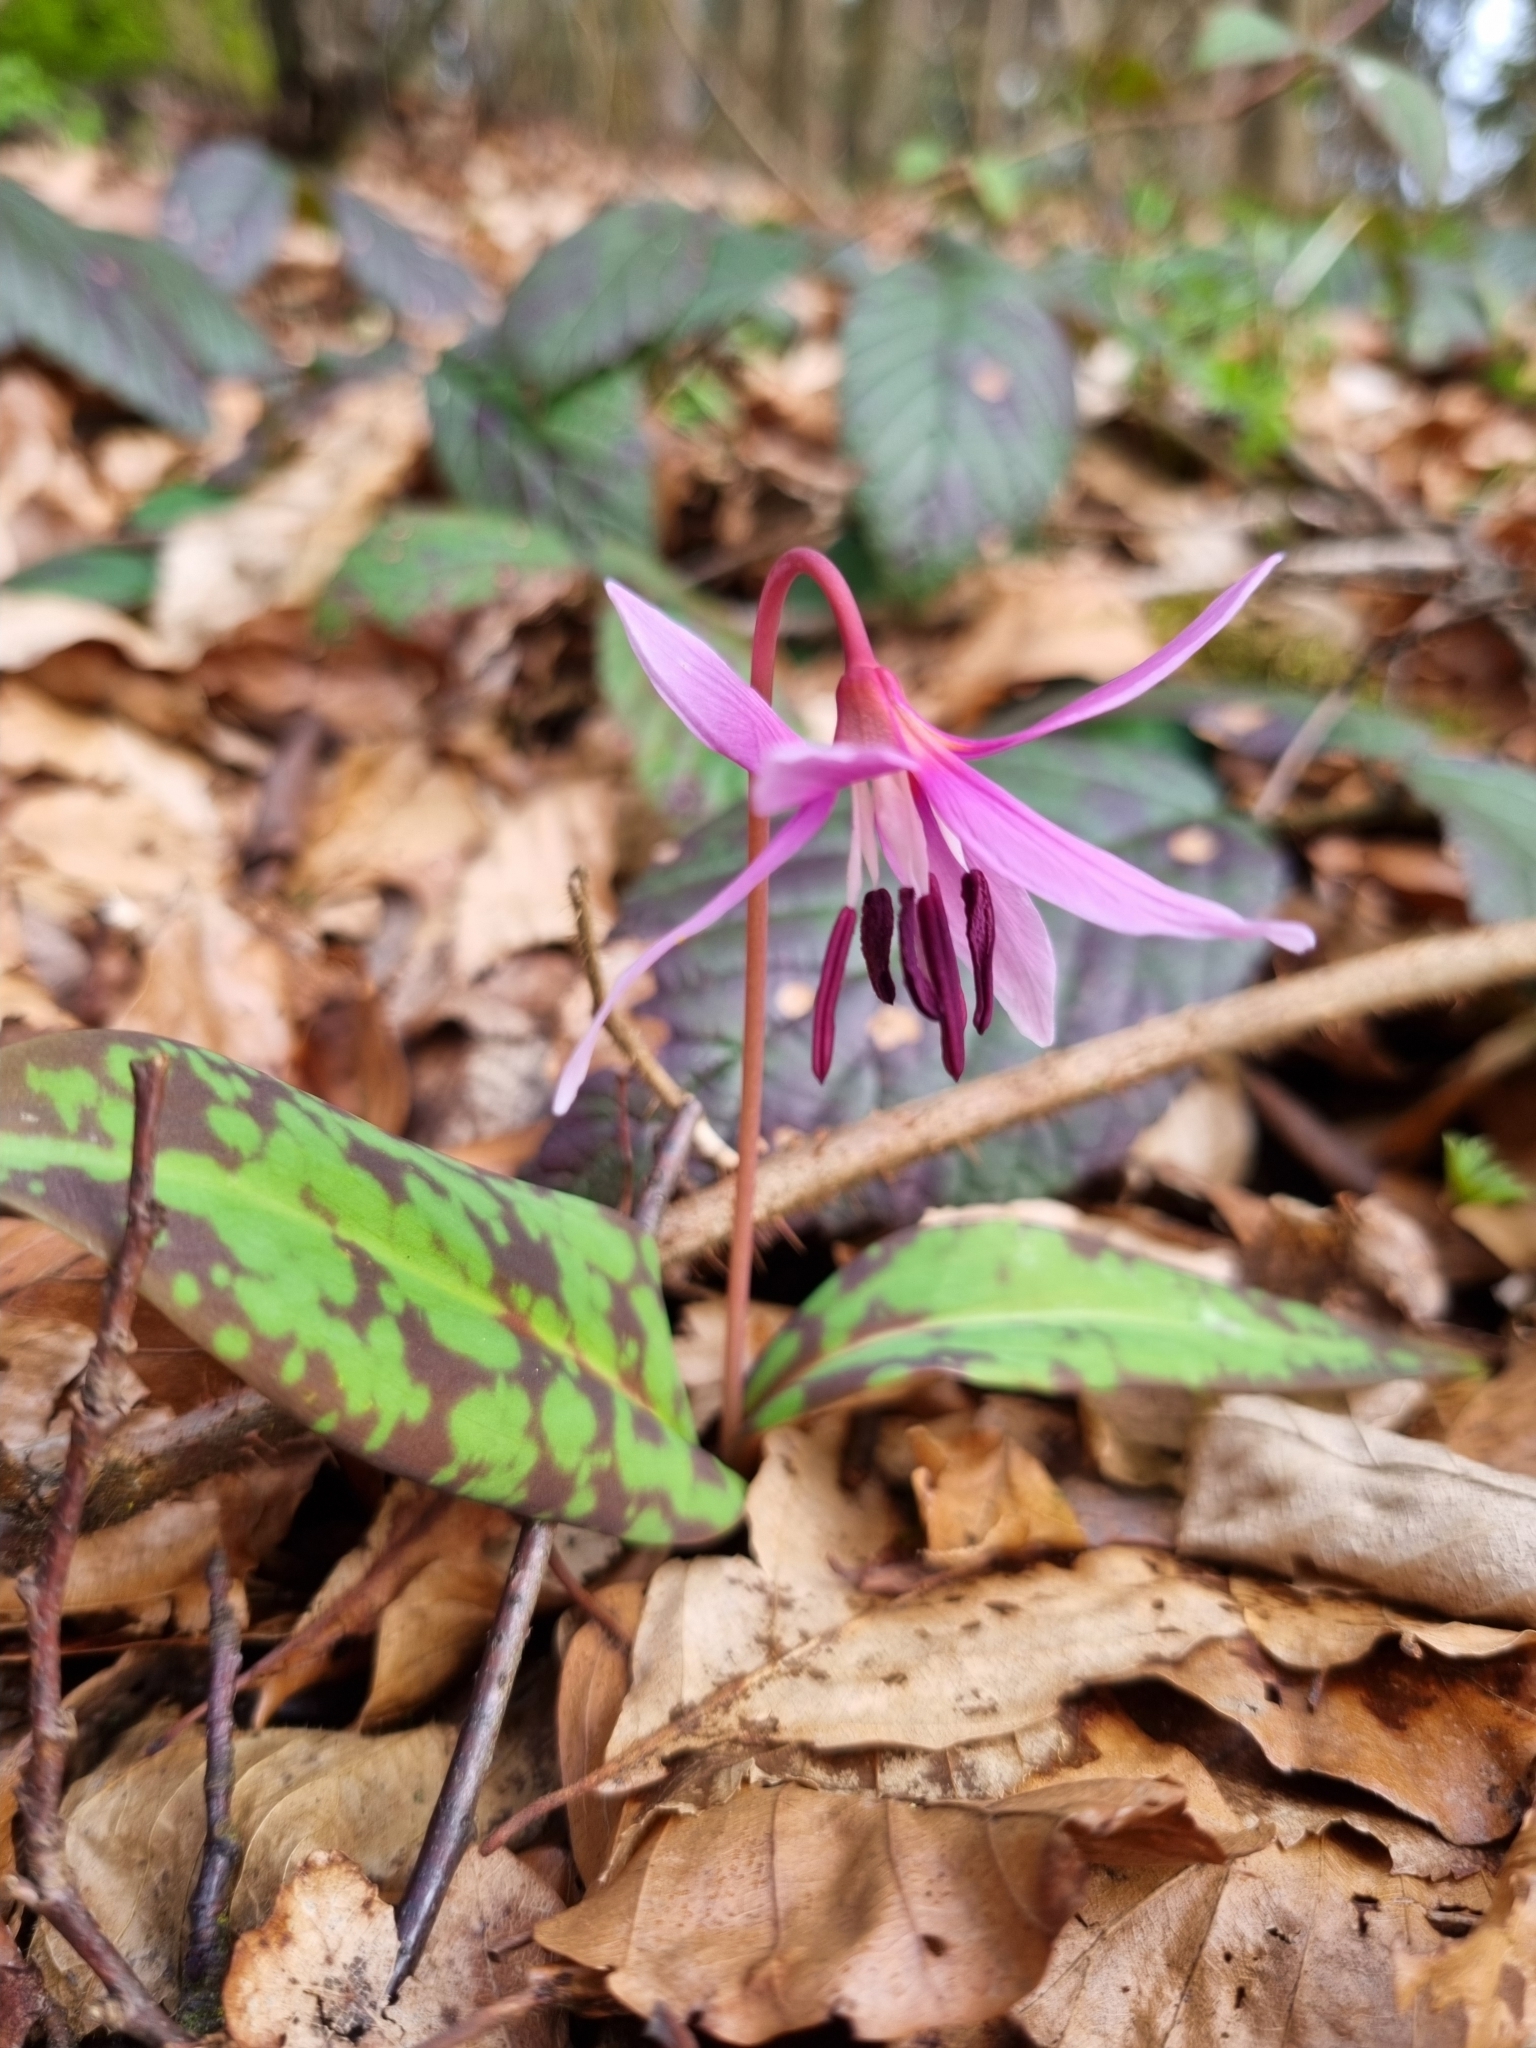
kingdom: Plantae
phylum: Tracheophyta
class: Liliopsida
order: Liliales
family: Liliaceae
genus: Erythronium
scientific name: Erythronium dens-canis
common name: Dog's-tooth-violet
